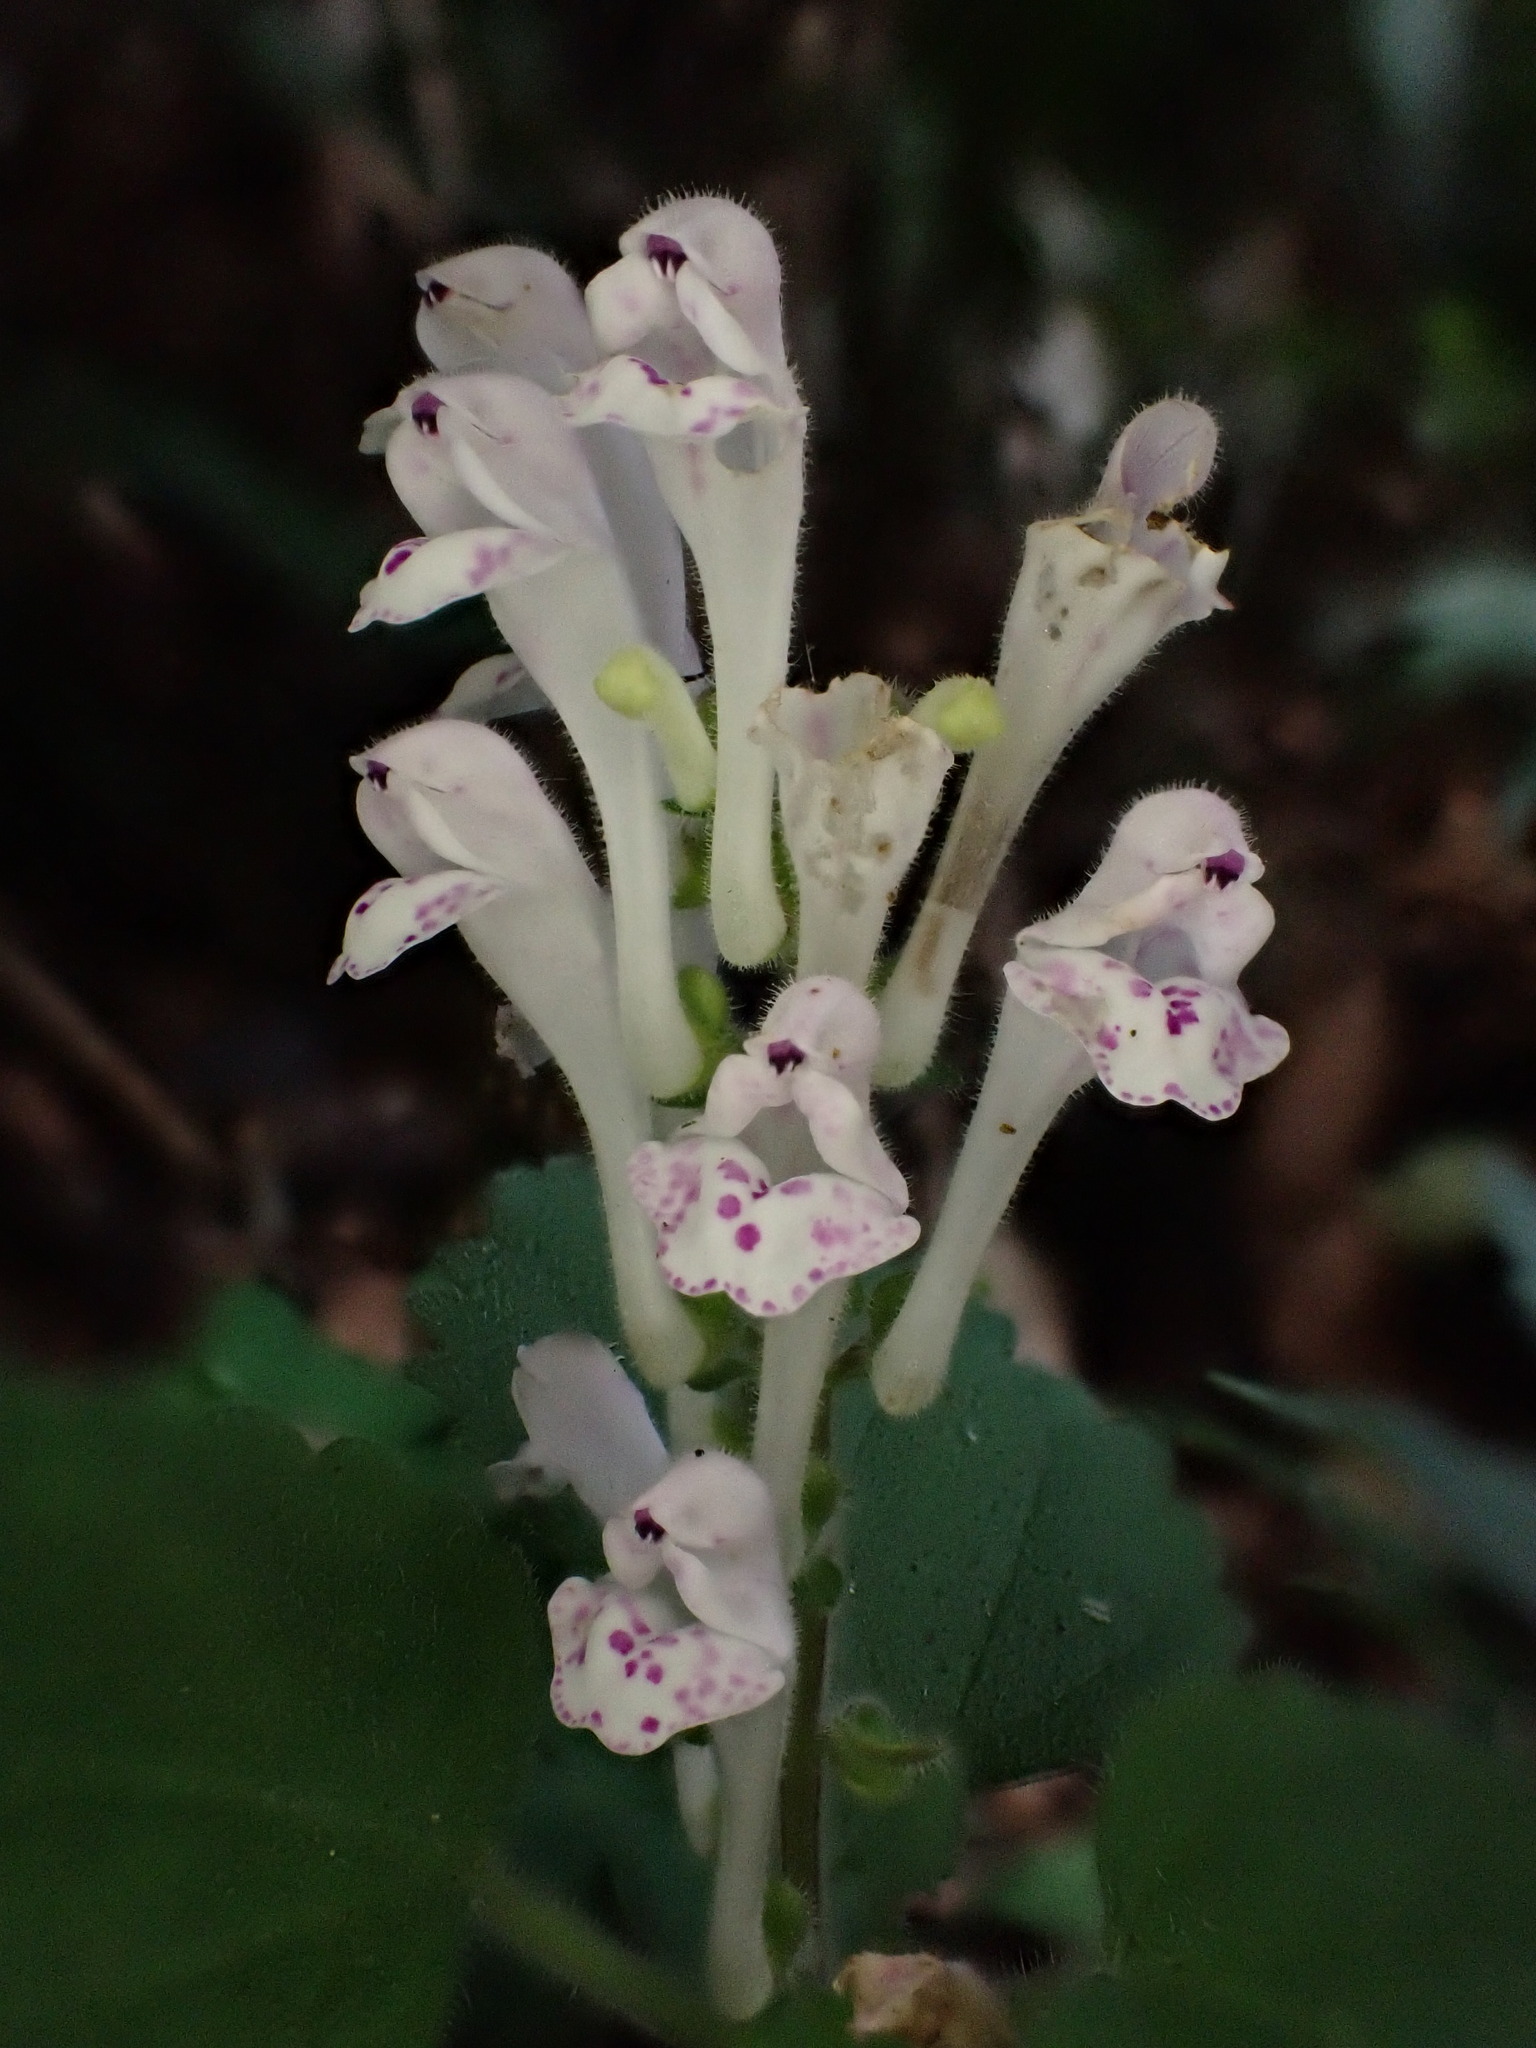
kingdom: Plantae
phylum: Tracheophyta
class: Magnoliopsida
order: Lamiales
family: Lamiaceae
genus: Scutellaria
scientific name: Scutellaria indica
